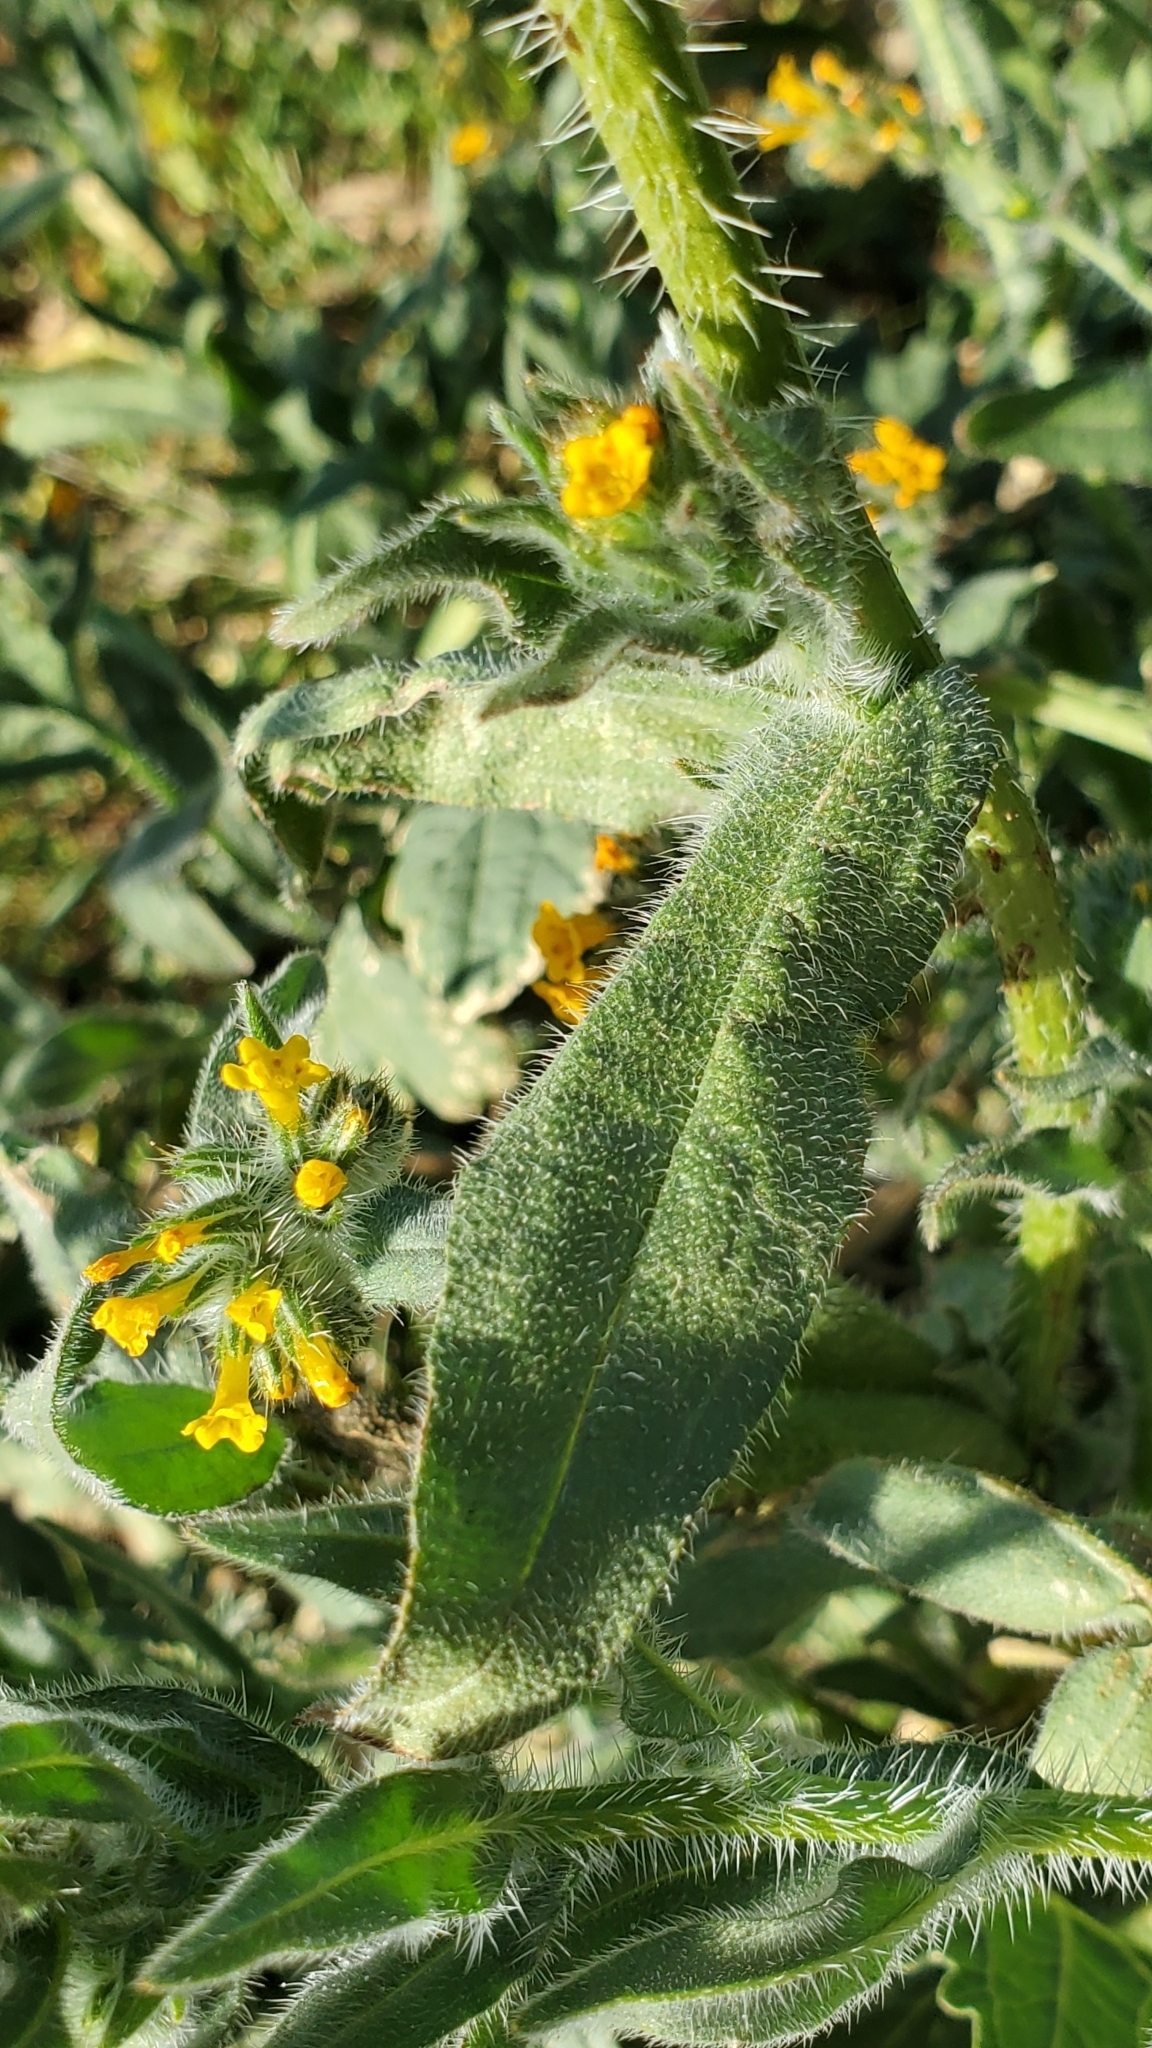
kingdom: Plantae
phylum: Tracheophyta
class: Magnoliopsida
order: Boraginales
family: Boraginaceae
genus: Amsinckia
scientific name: Amsinckia menziesii
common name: Menzies' fiddleneck
